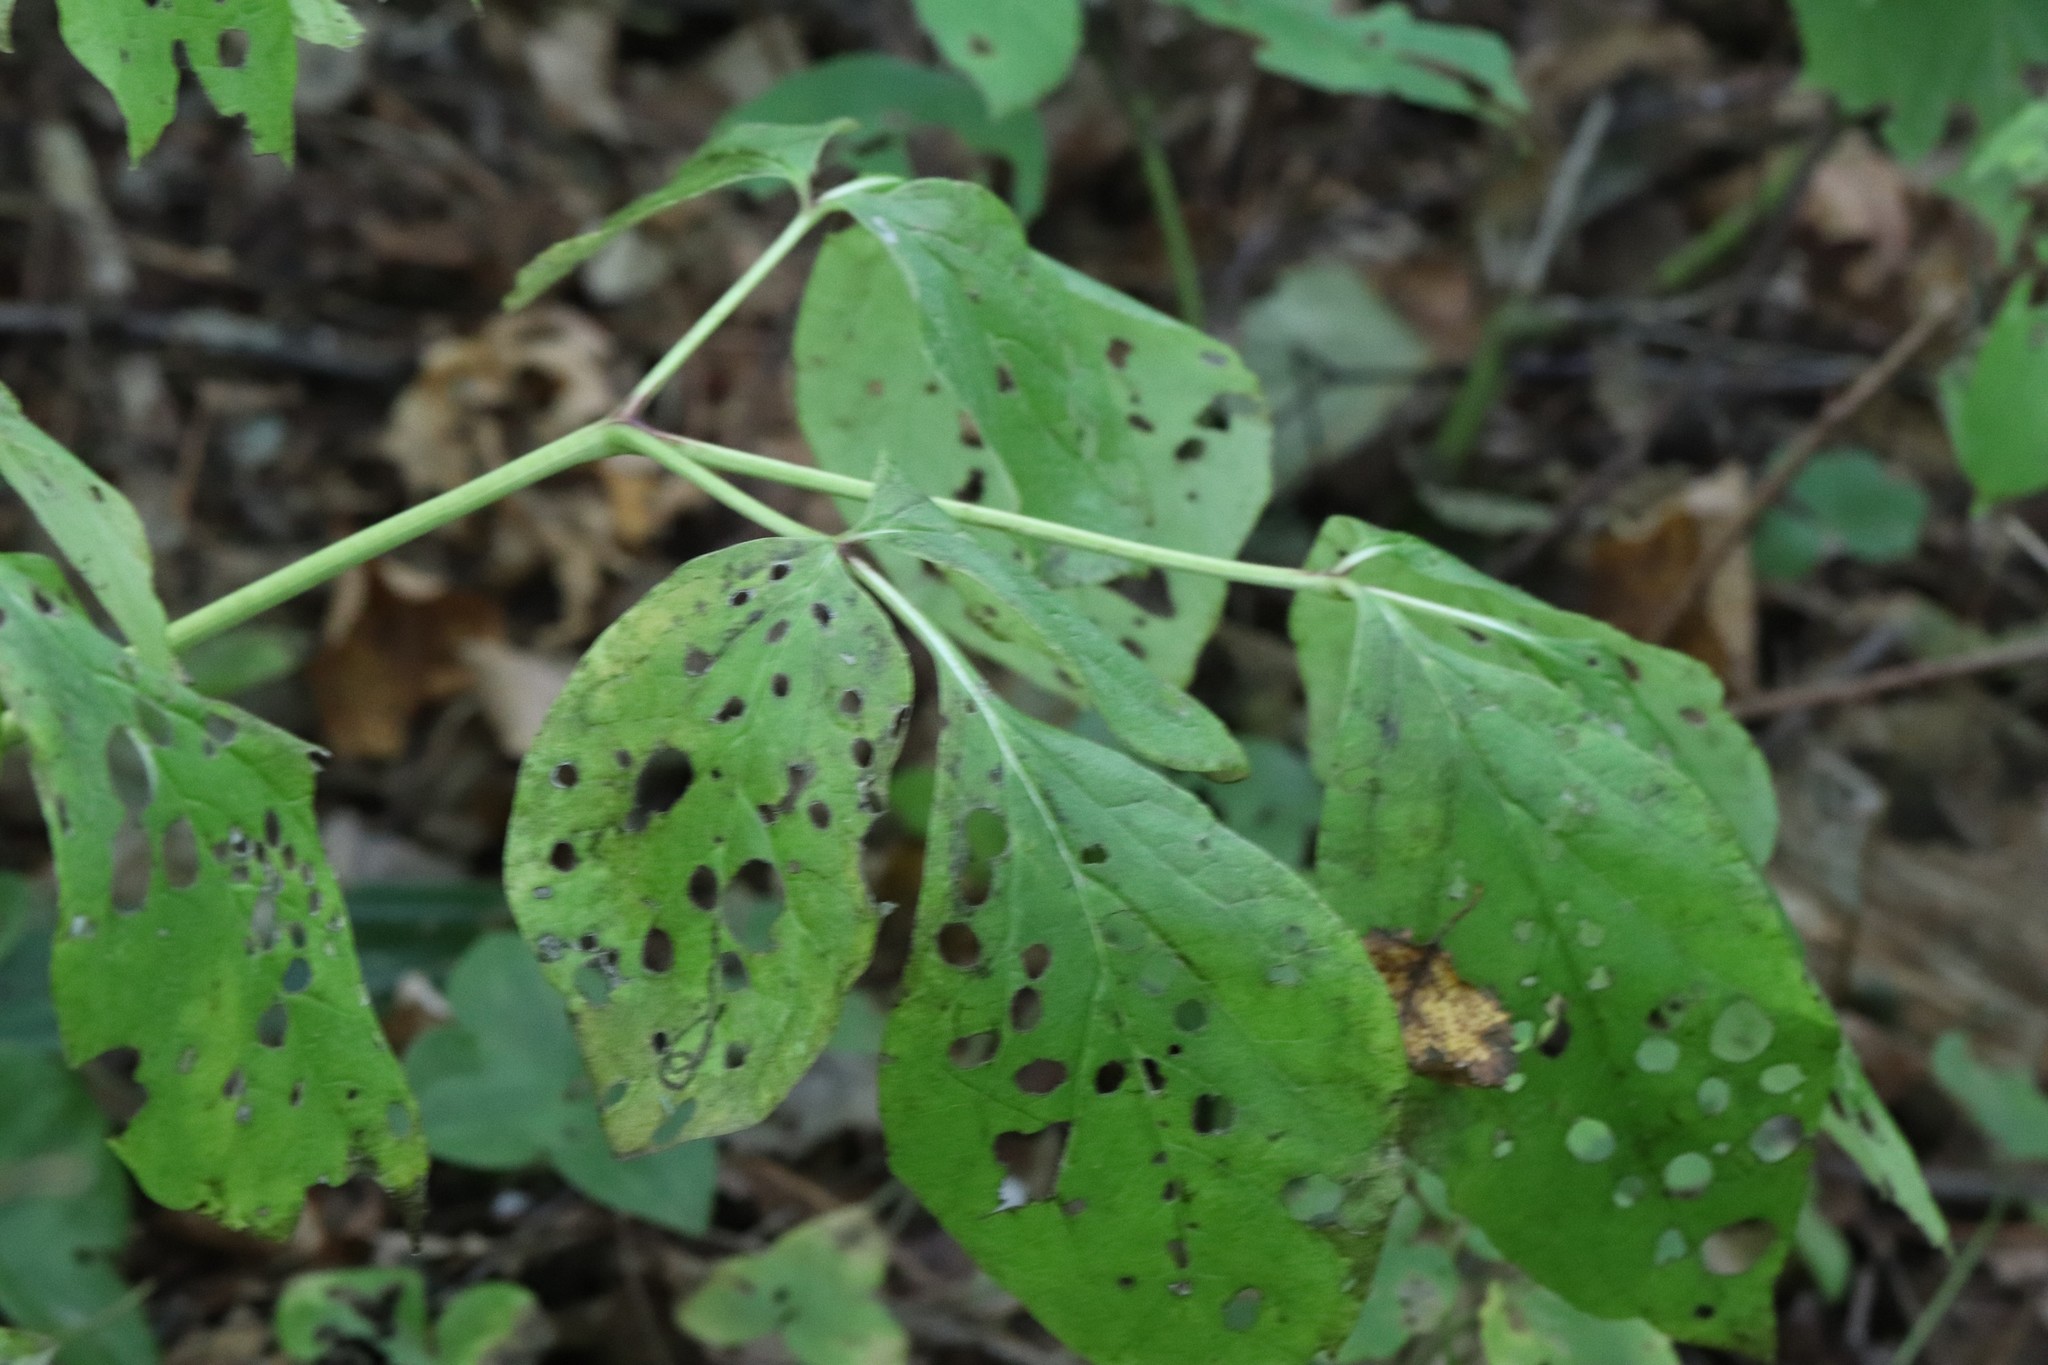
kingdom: Plantae
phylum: Tracheophyta
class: Magnoliopsida
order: Saxifragales
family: Paeoniaceae
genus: Paeonia
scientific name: Paeonia obovata
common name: Chinese peony
